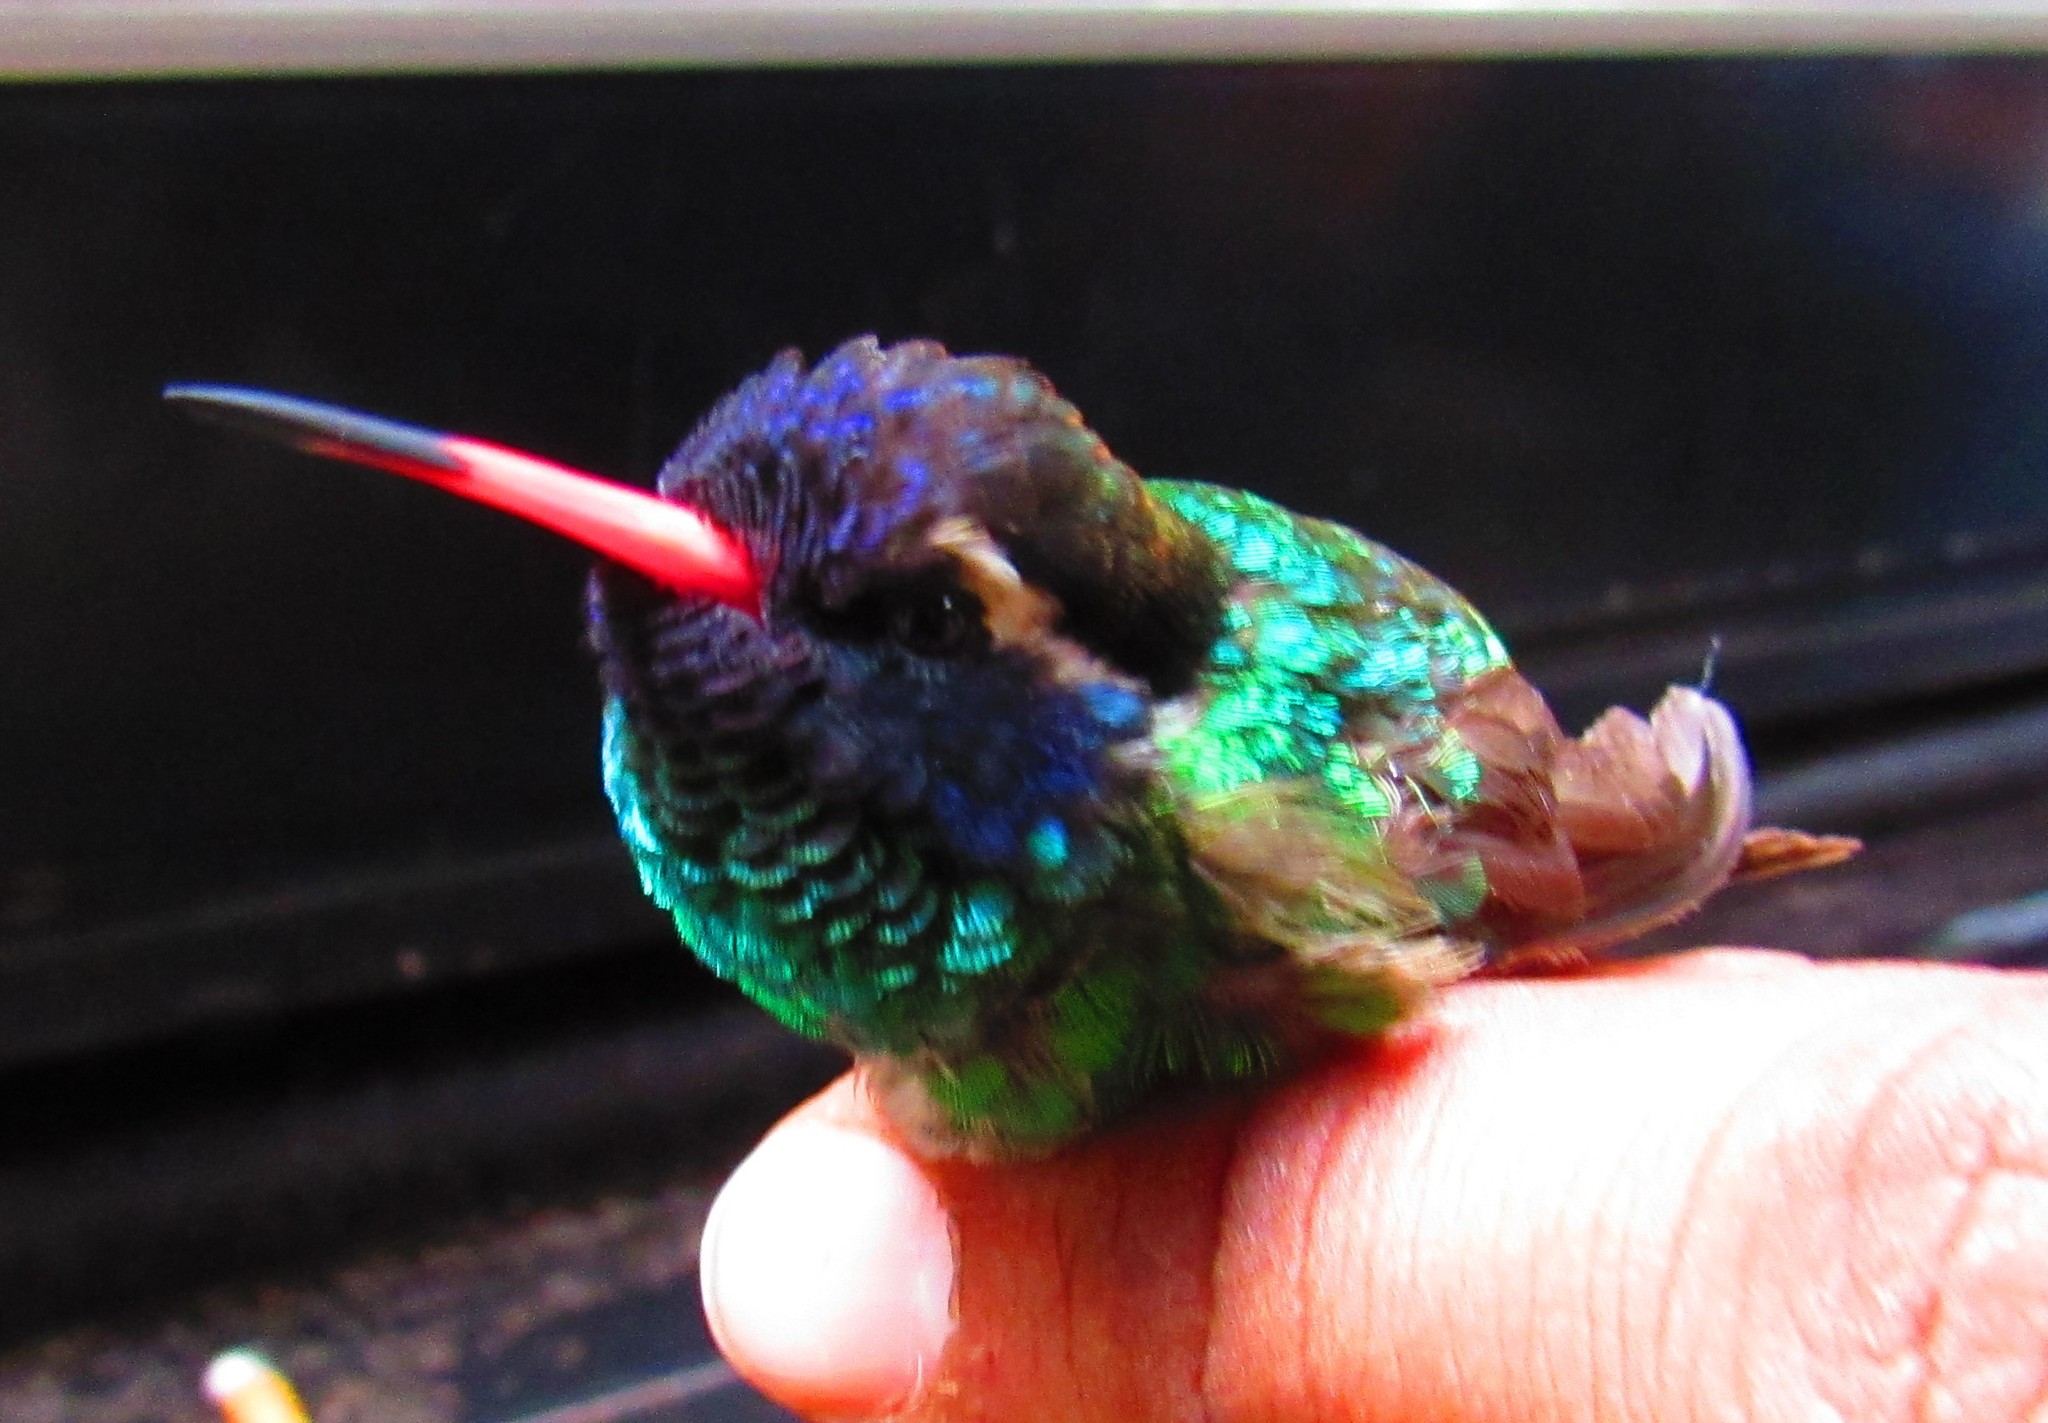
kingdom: Animalia
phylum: Chordata
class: Aves
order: Apodiformes
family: Trochilidae
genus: Basilinna
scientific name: Basilinna leucotis
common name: White-eared hummingbird
